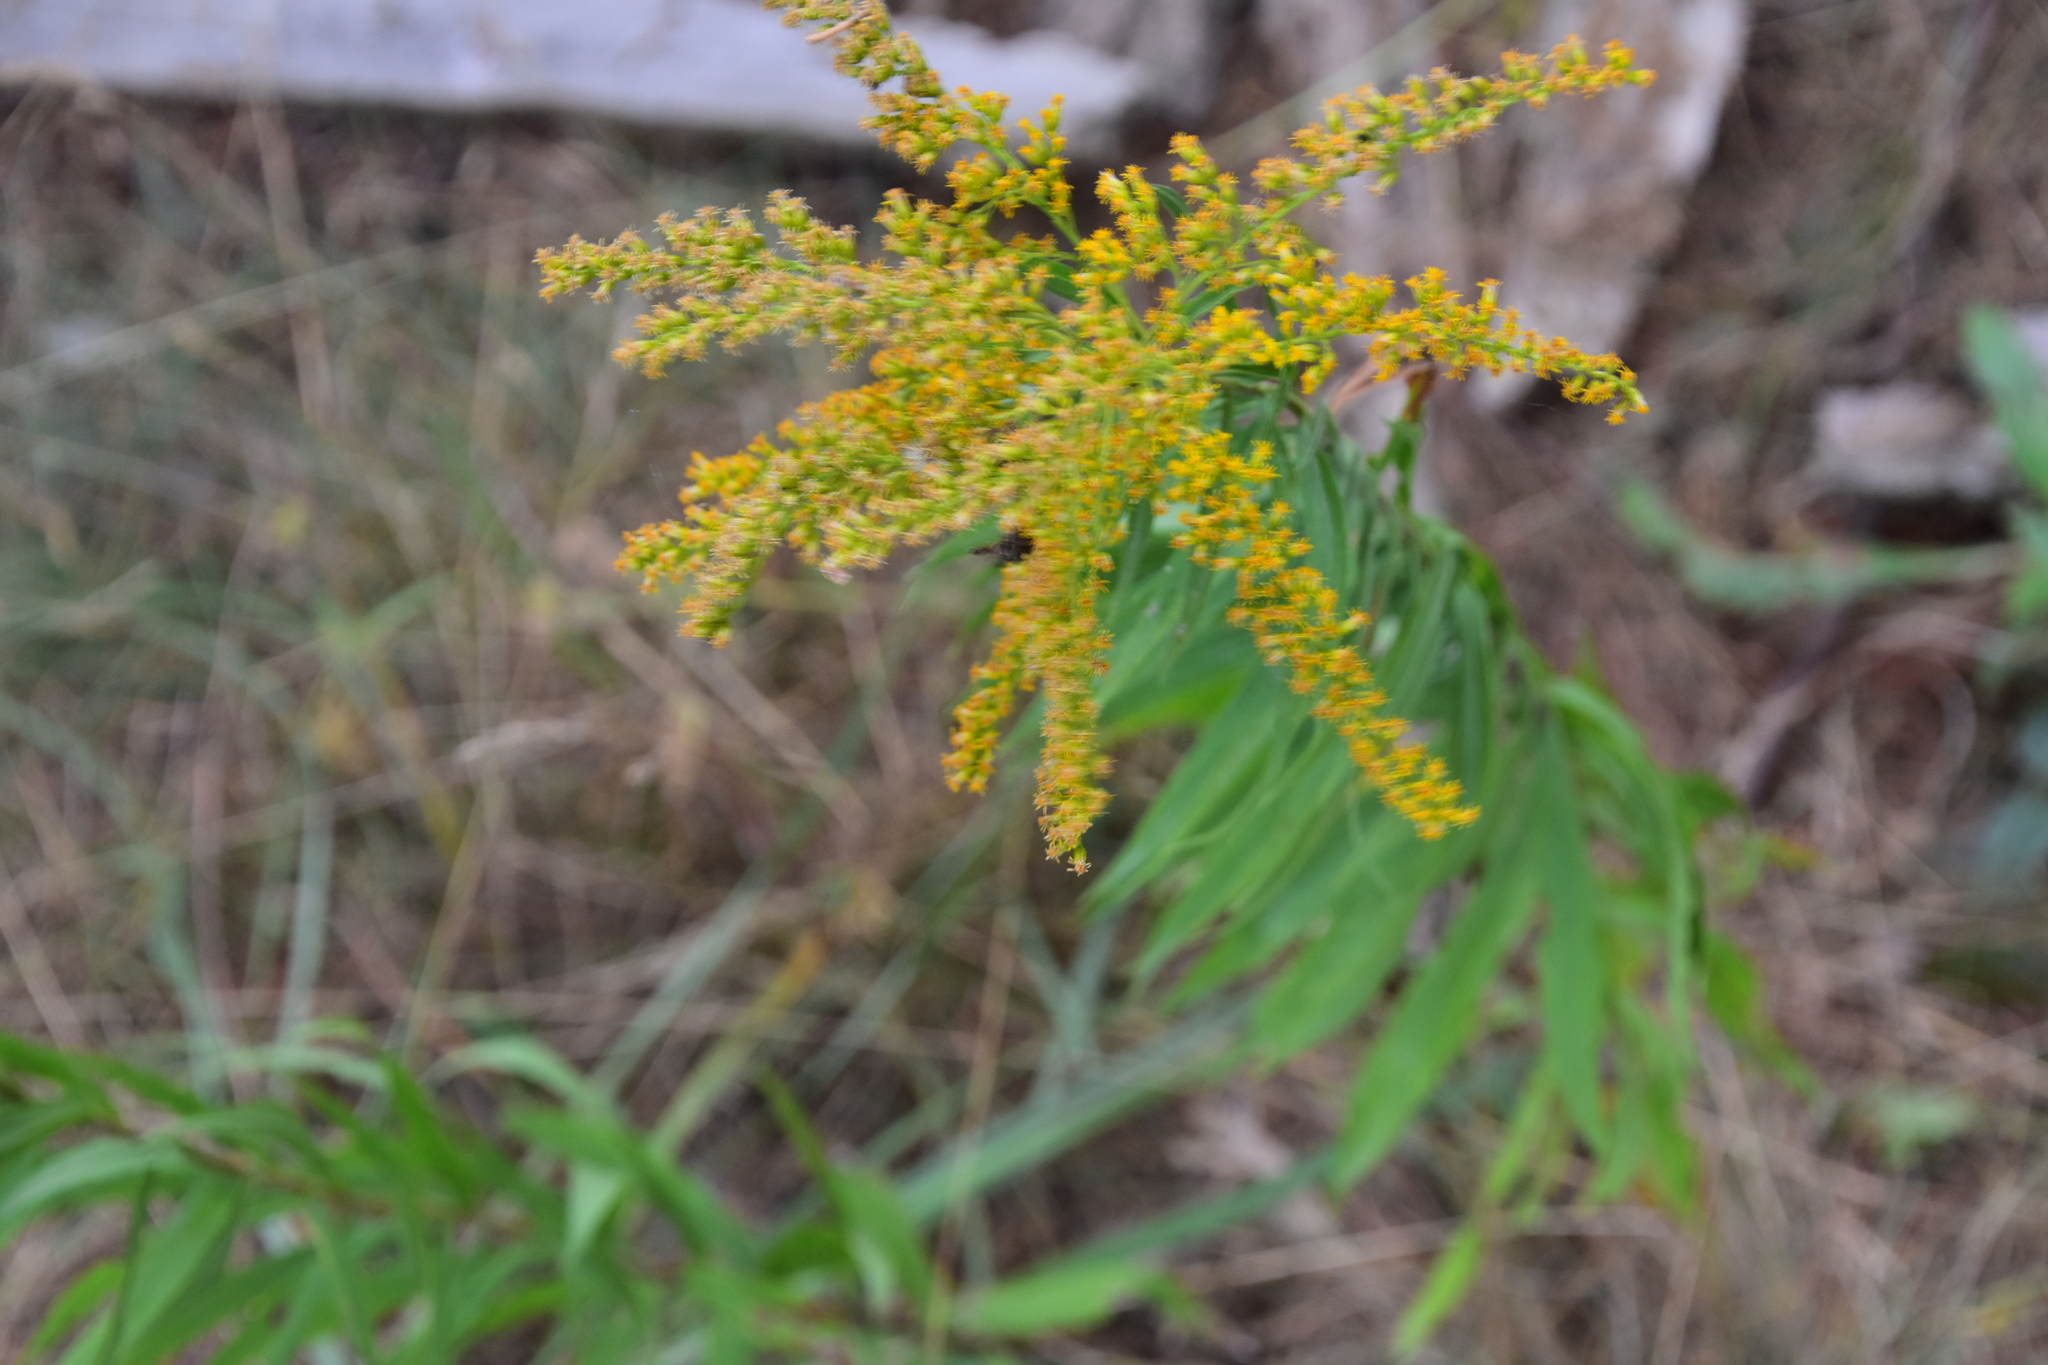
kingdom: Plantae
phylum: Tracheophyta
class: Magnoliopsida
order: Asterales
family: Asteraceae
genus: Solidago
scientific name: Solidago juncea
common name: Early goldenrod
